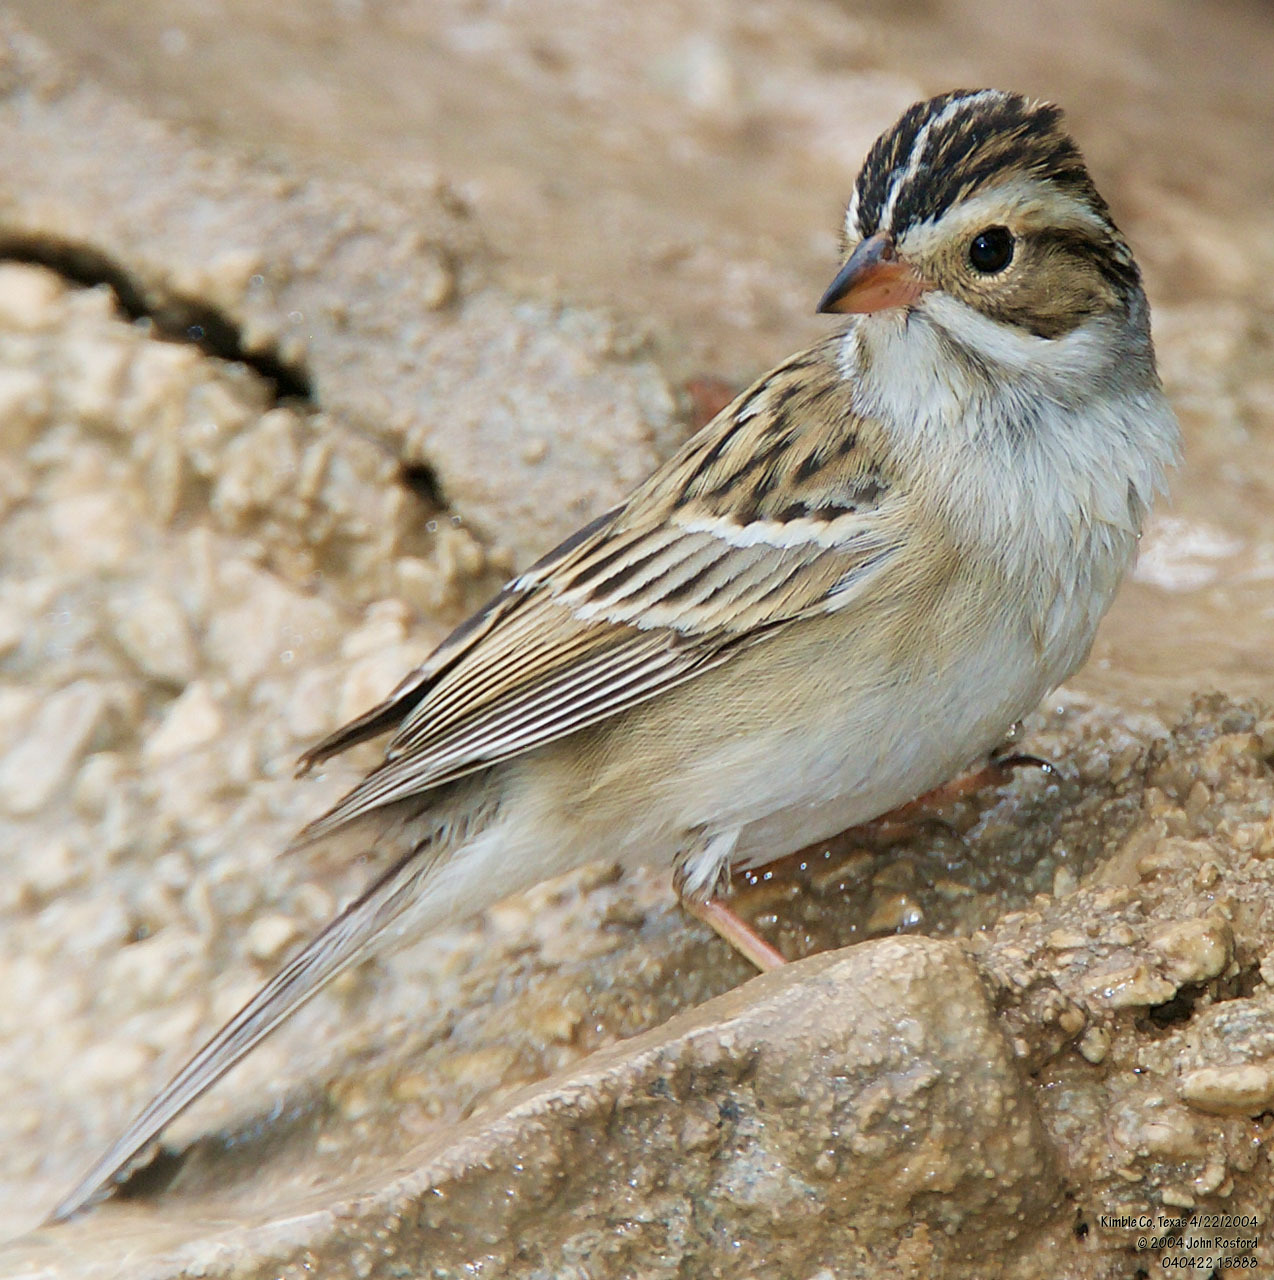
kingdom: Animalia
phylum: Chordata
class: Aves
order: Passeriformes
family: Passerellidae
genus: Spizella
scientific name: Spizella pallida
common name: Clay-colored sparrow
